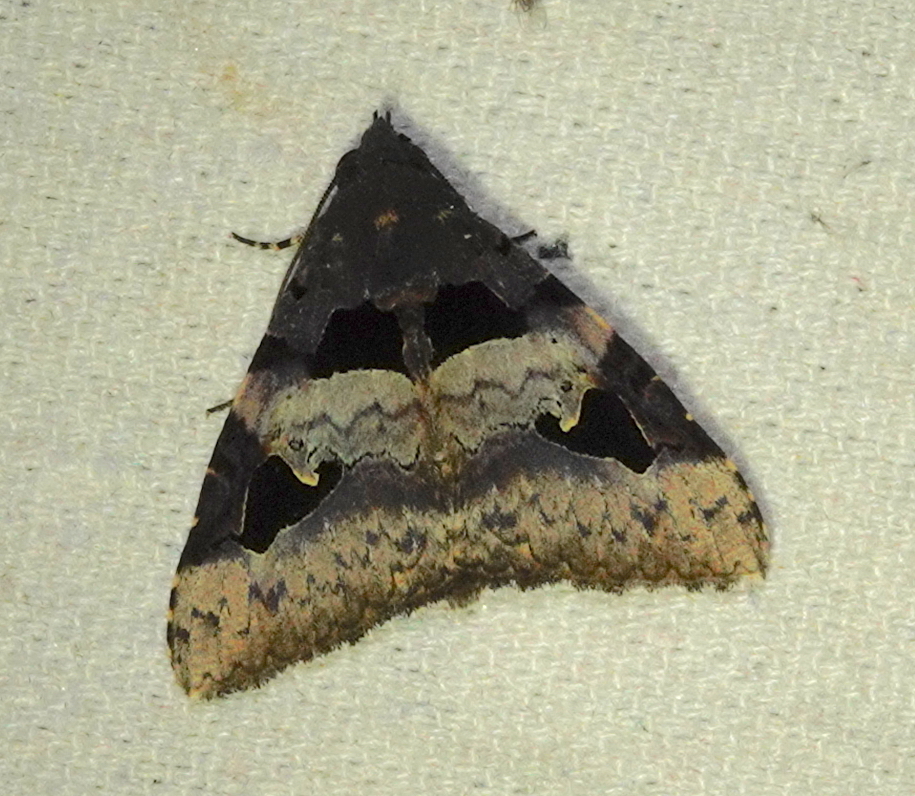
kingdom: Animalia
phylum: Arthropoda
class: Insecta
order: Lepidoptera
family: Erebidae
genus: Avatha
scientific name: Avatha bubo
